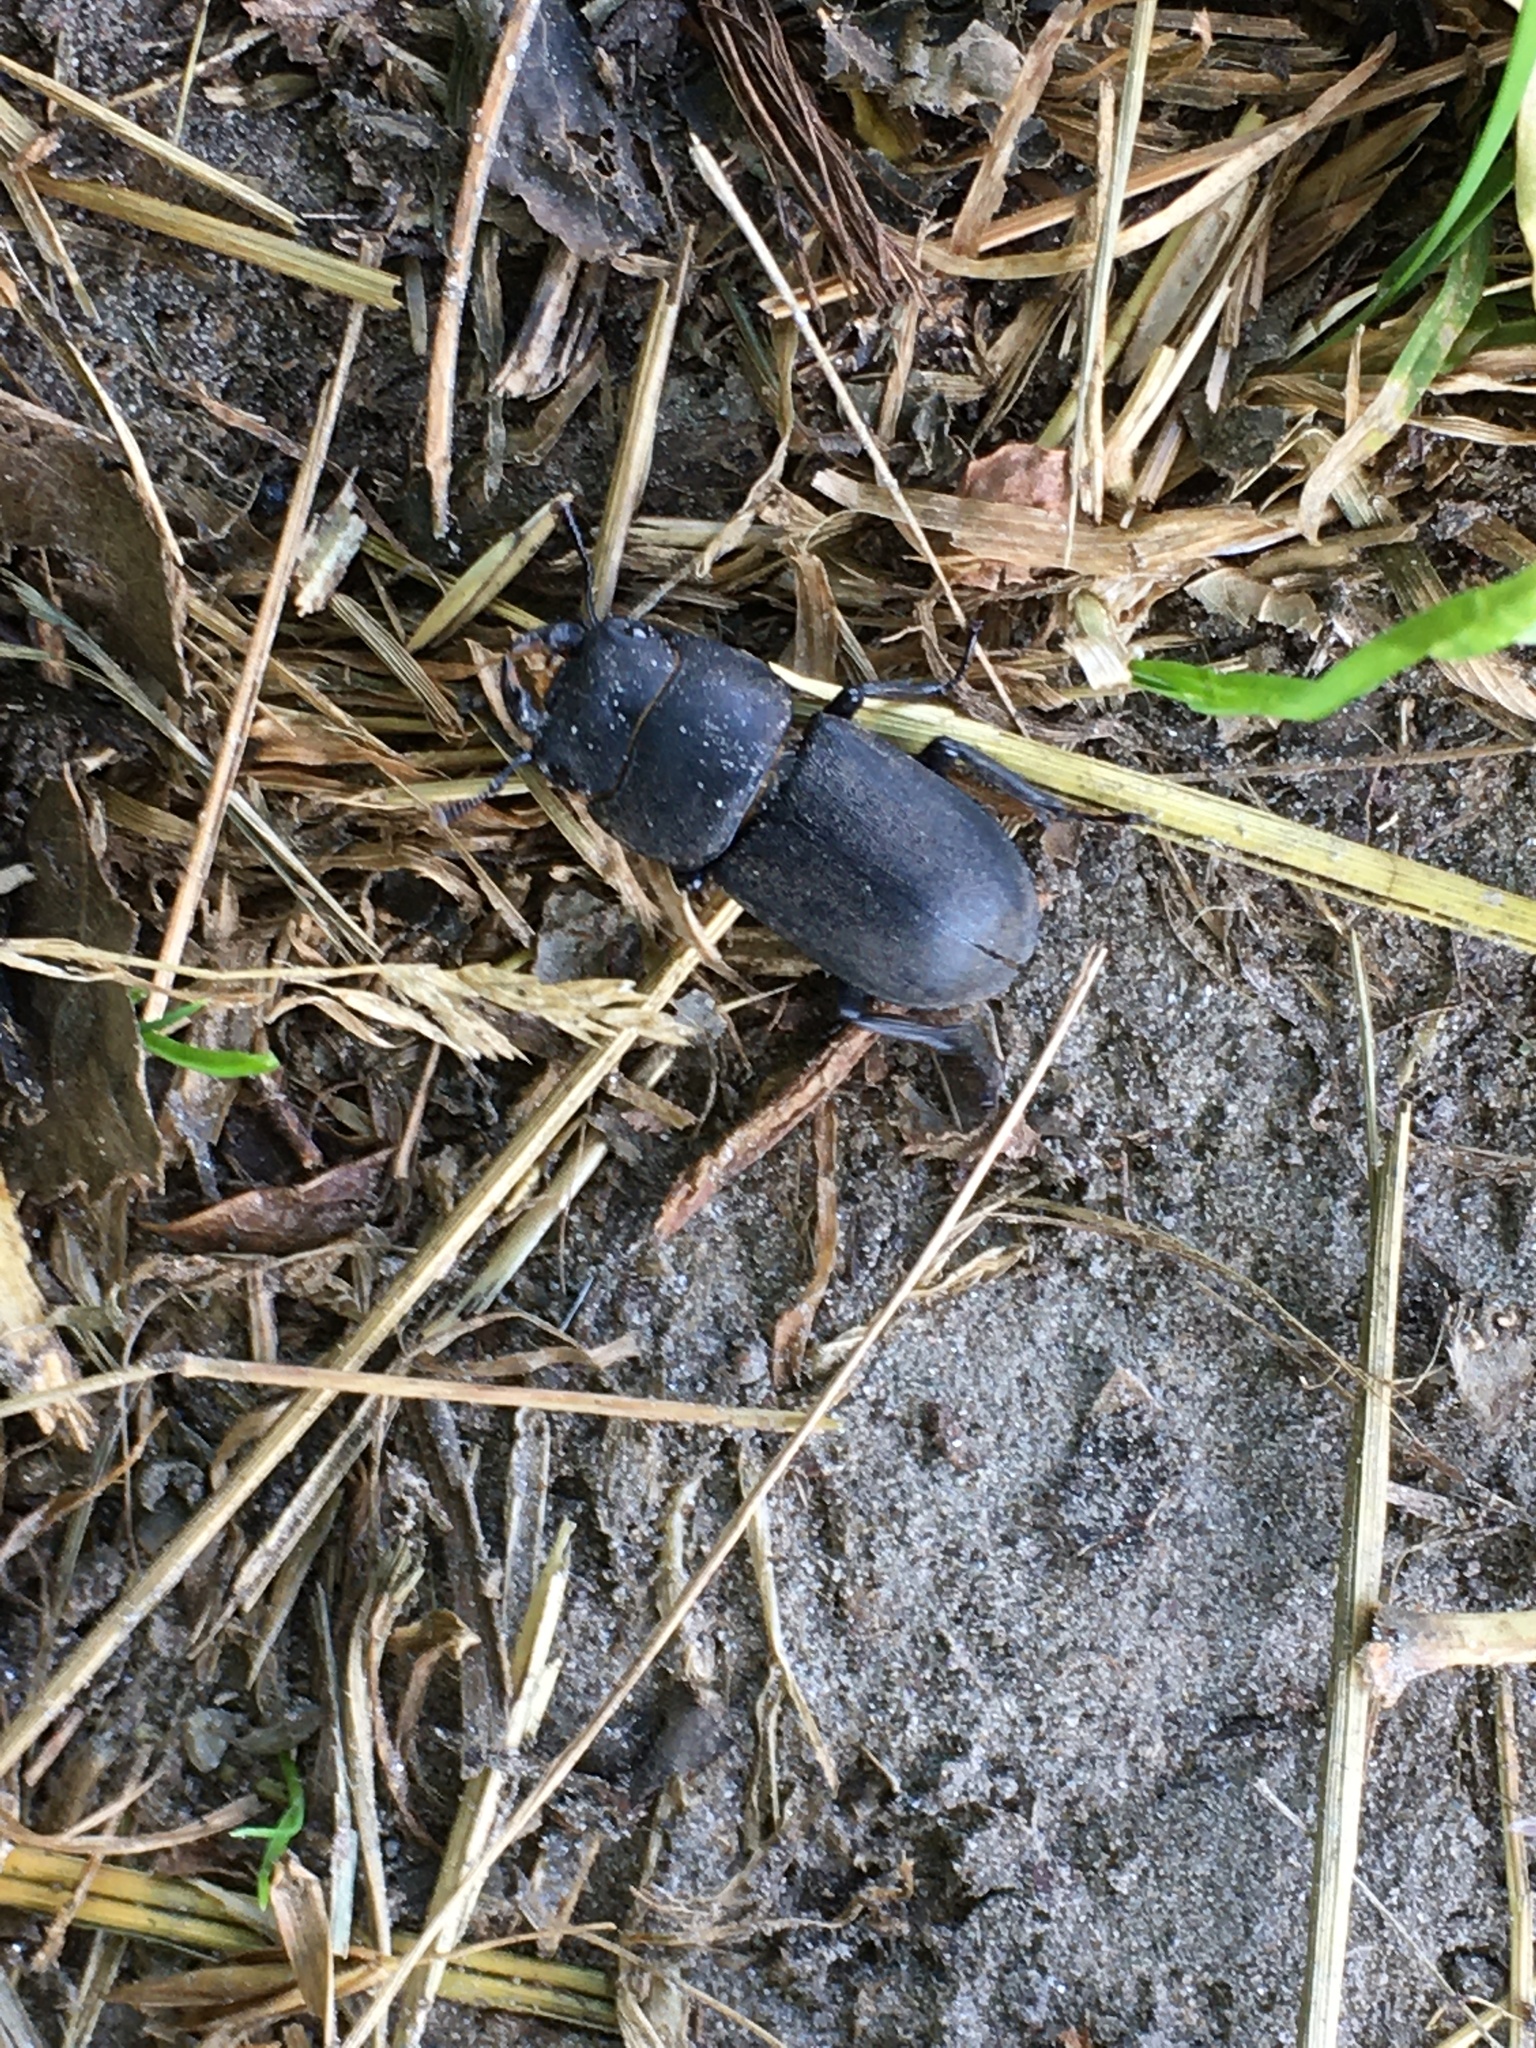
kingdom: Animalia
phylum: Arthropoda
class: Insecta
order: Coleoptera
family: Lucanidae
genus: Dorcus
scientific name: Dorcus parallelipipedus
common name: Lesser stag beetle
